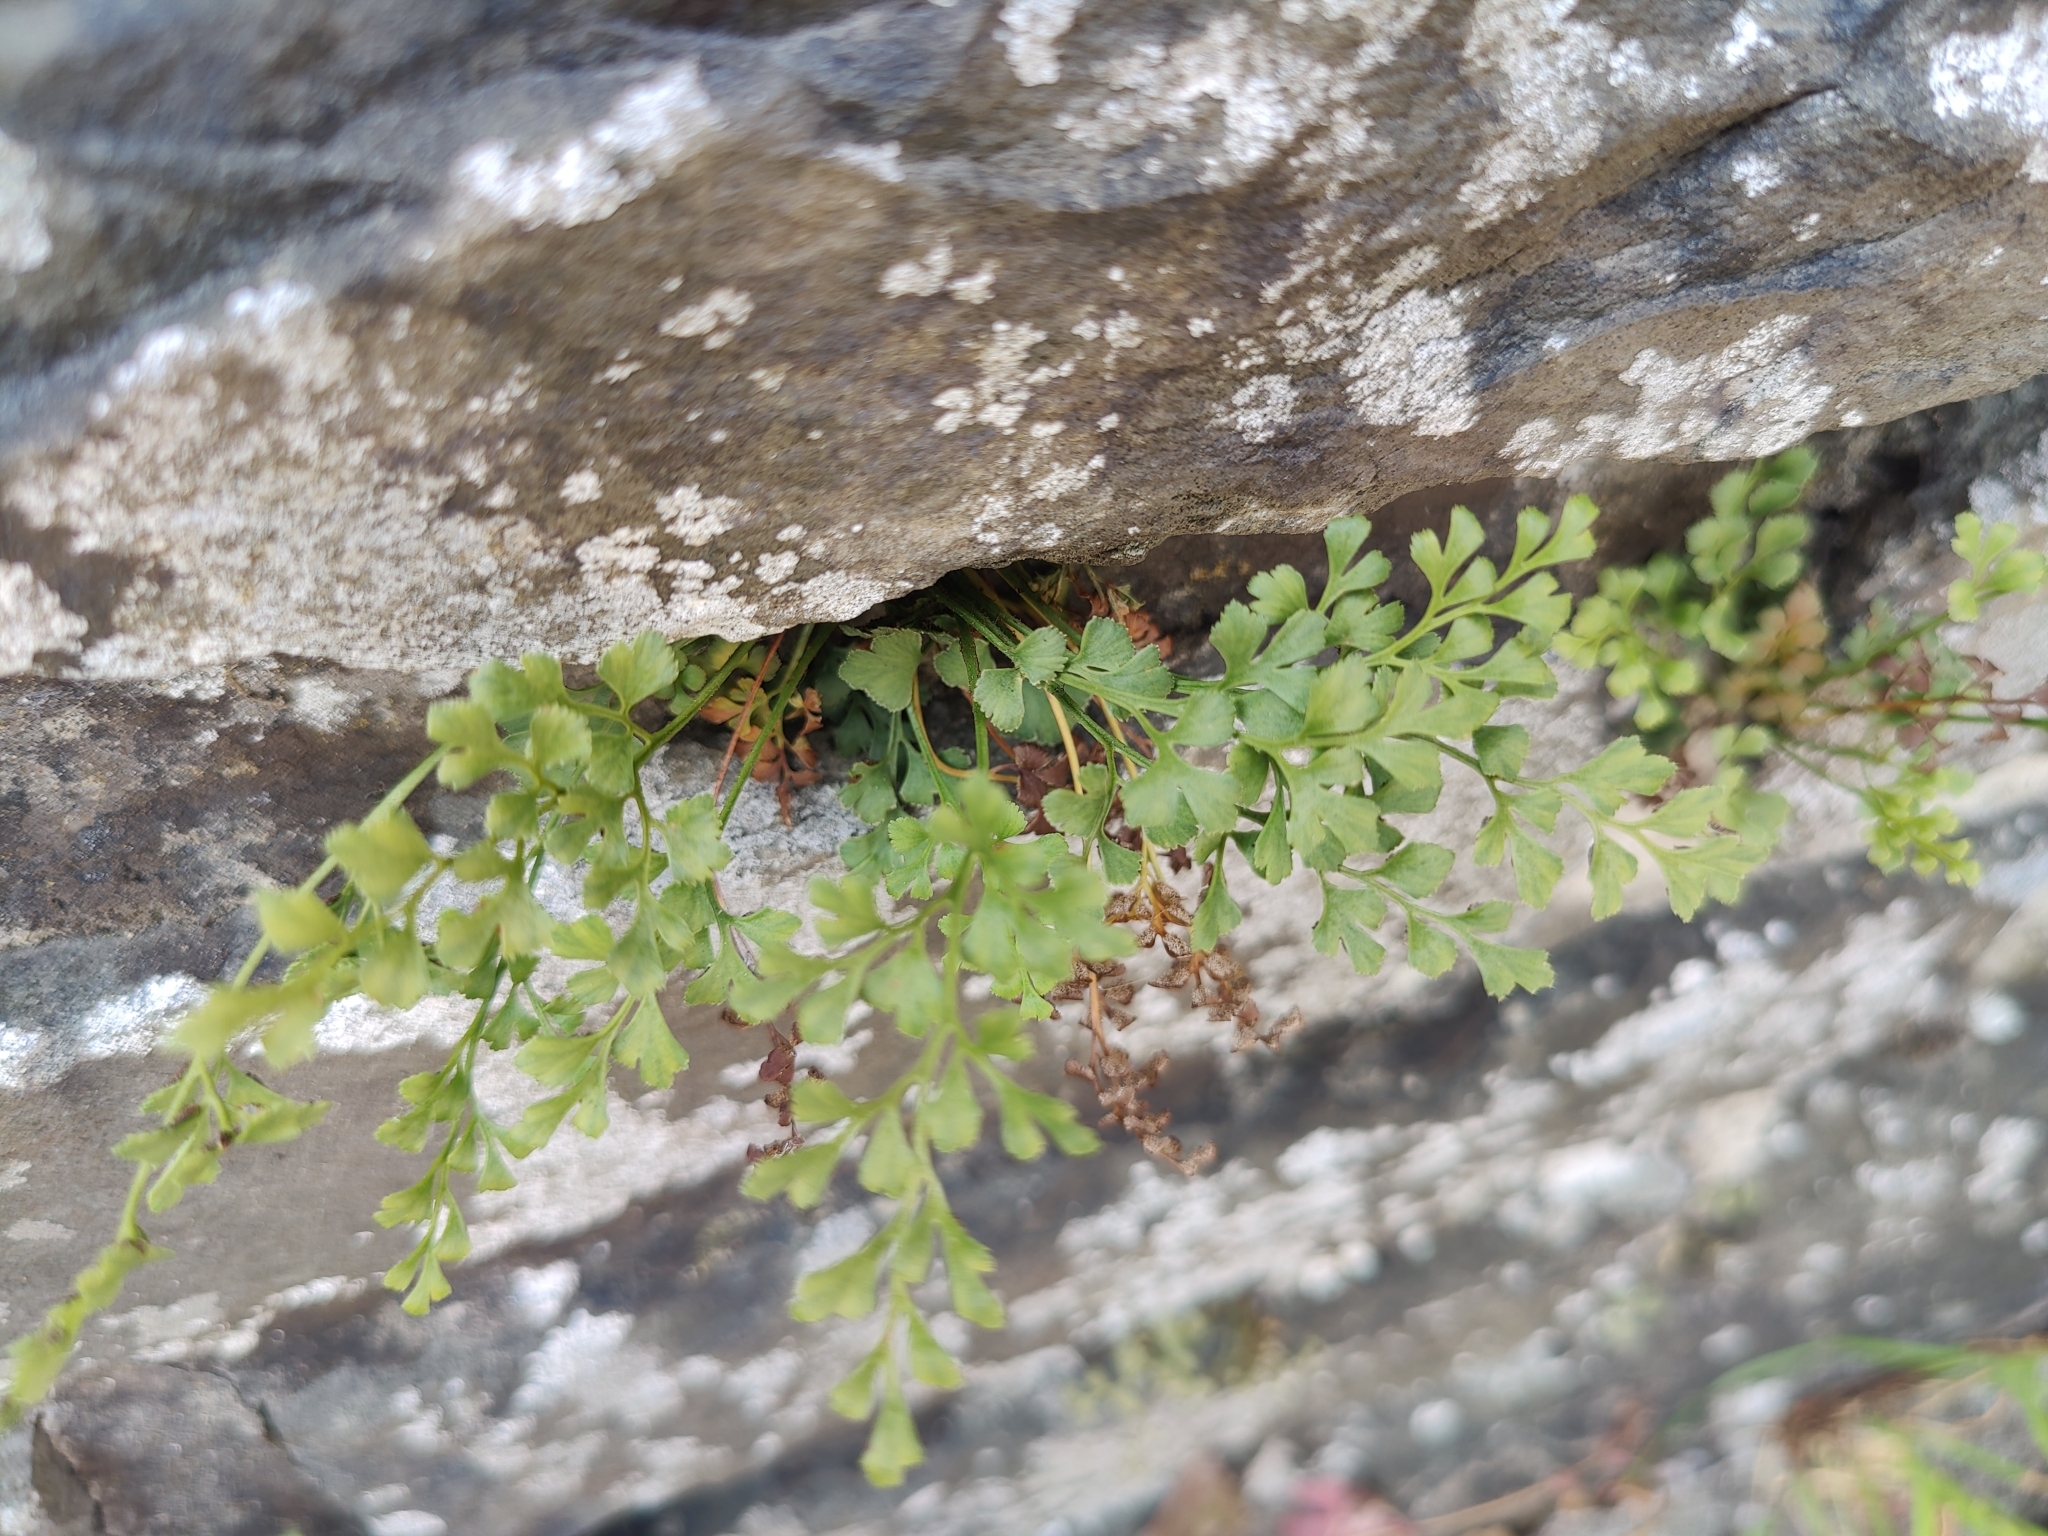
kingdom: Plantae
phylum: Tracheophyta
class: Polypodiopsida
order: Polypodiales
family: Aspleniaceae
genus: Asplenium
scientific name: Asplenium ruta-muraria
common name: Wall-rue
